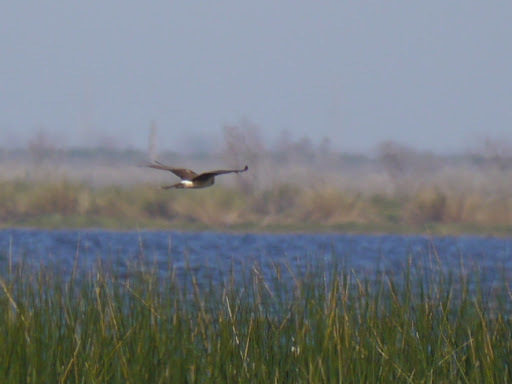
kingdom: Animalia
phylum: Chordata
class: Aves
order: Accipitriformes
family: Accipitridae
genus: Circus
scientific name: Circus cyaneus
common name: Hen harrier
